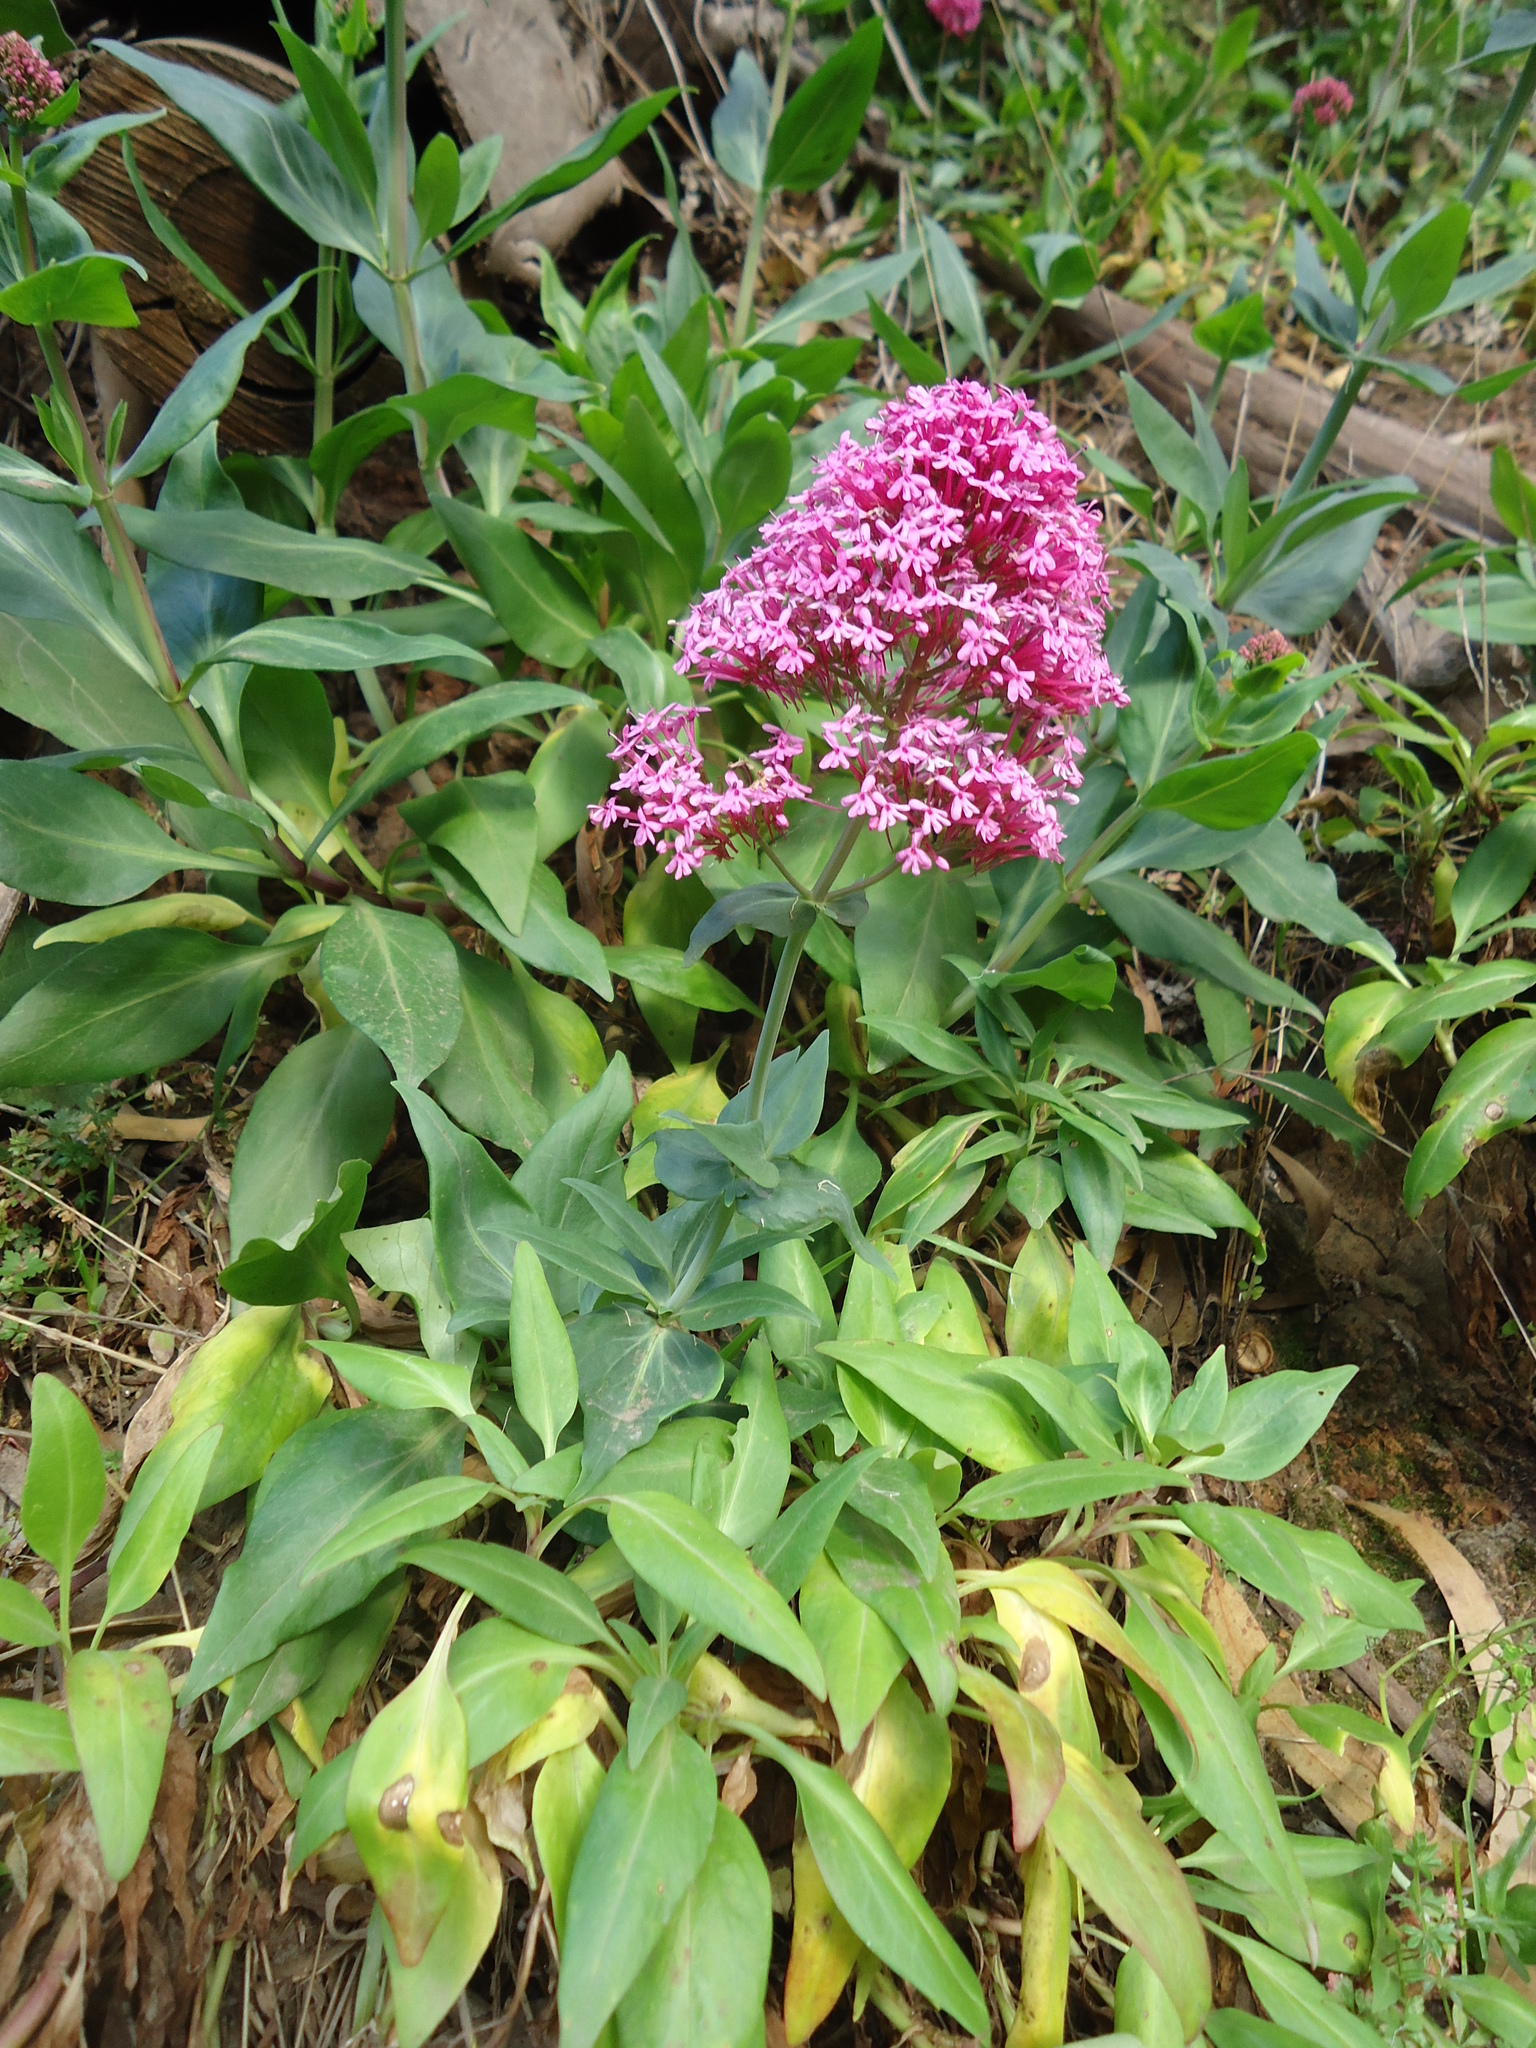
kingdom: Plantae
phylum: Tracheophyta
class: Magnoliopsida
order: Dipsacales
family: Caprifoliaceae
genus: Centranthus
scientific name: Centranthus ruber
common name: Red valerian
